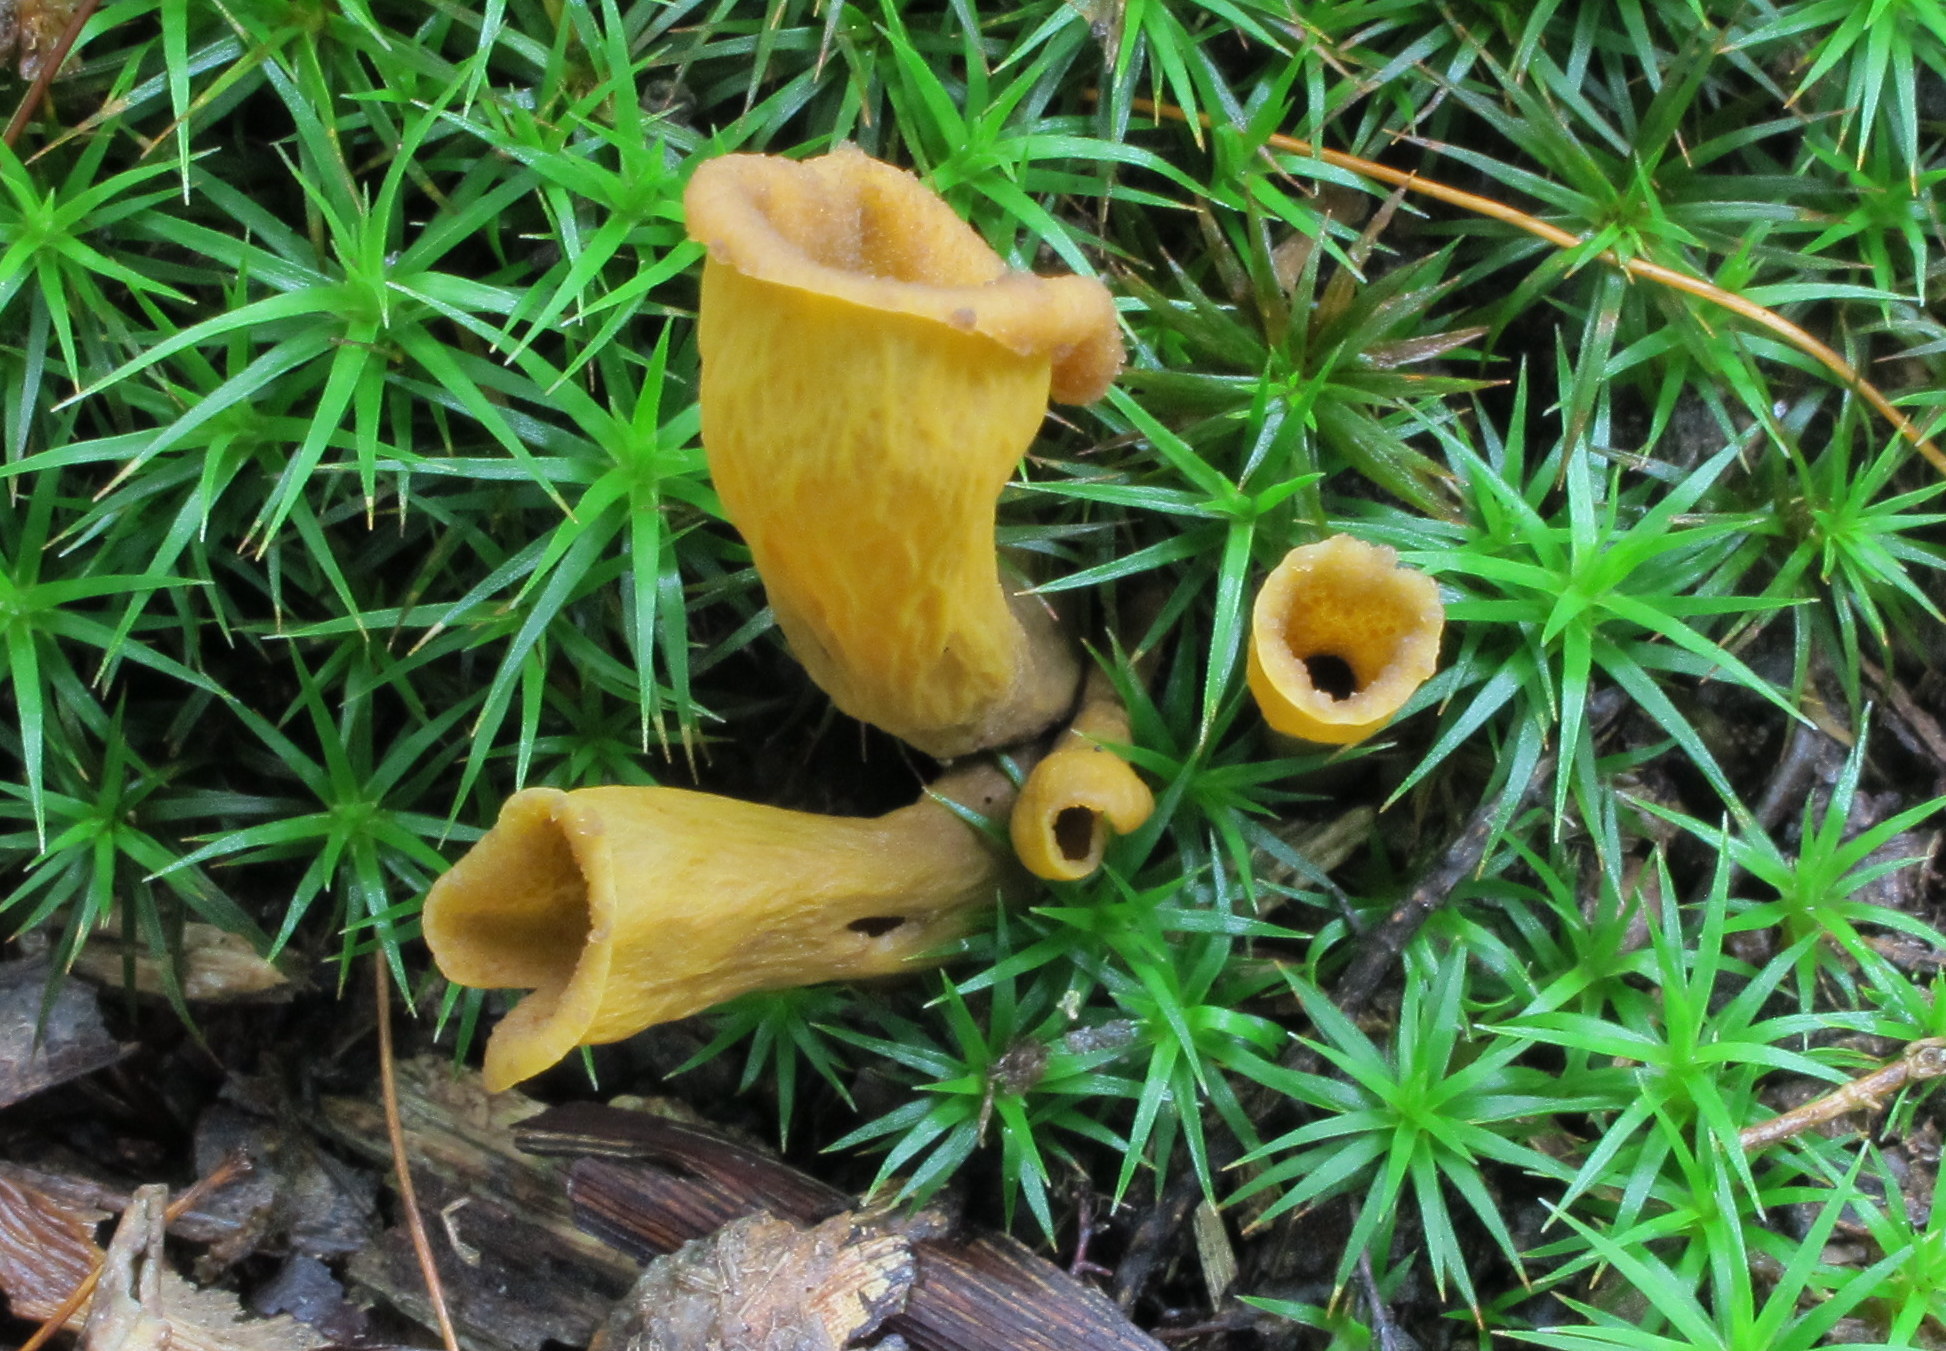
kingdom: Fungi
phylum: Basidiomycota
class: Agaricomycetes
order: Cantharellales
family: Hydnaceae
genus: Craterellus
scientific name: Craterellus cornucopioides
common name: Horn of plenty
